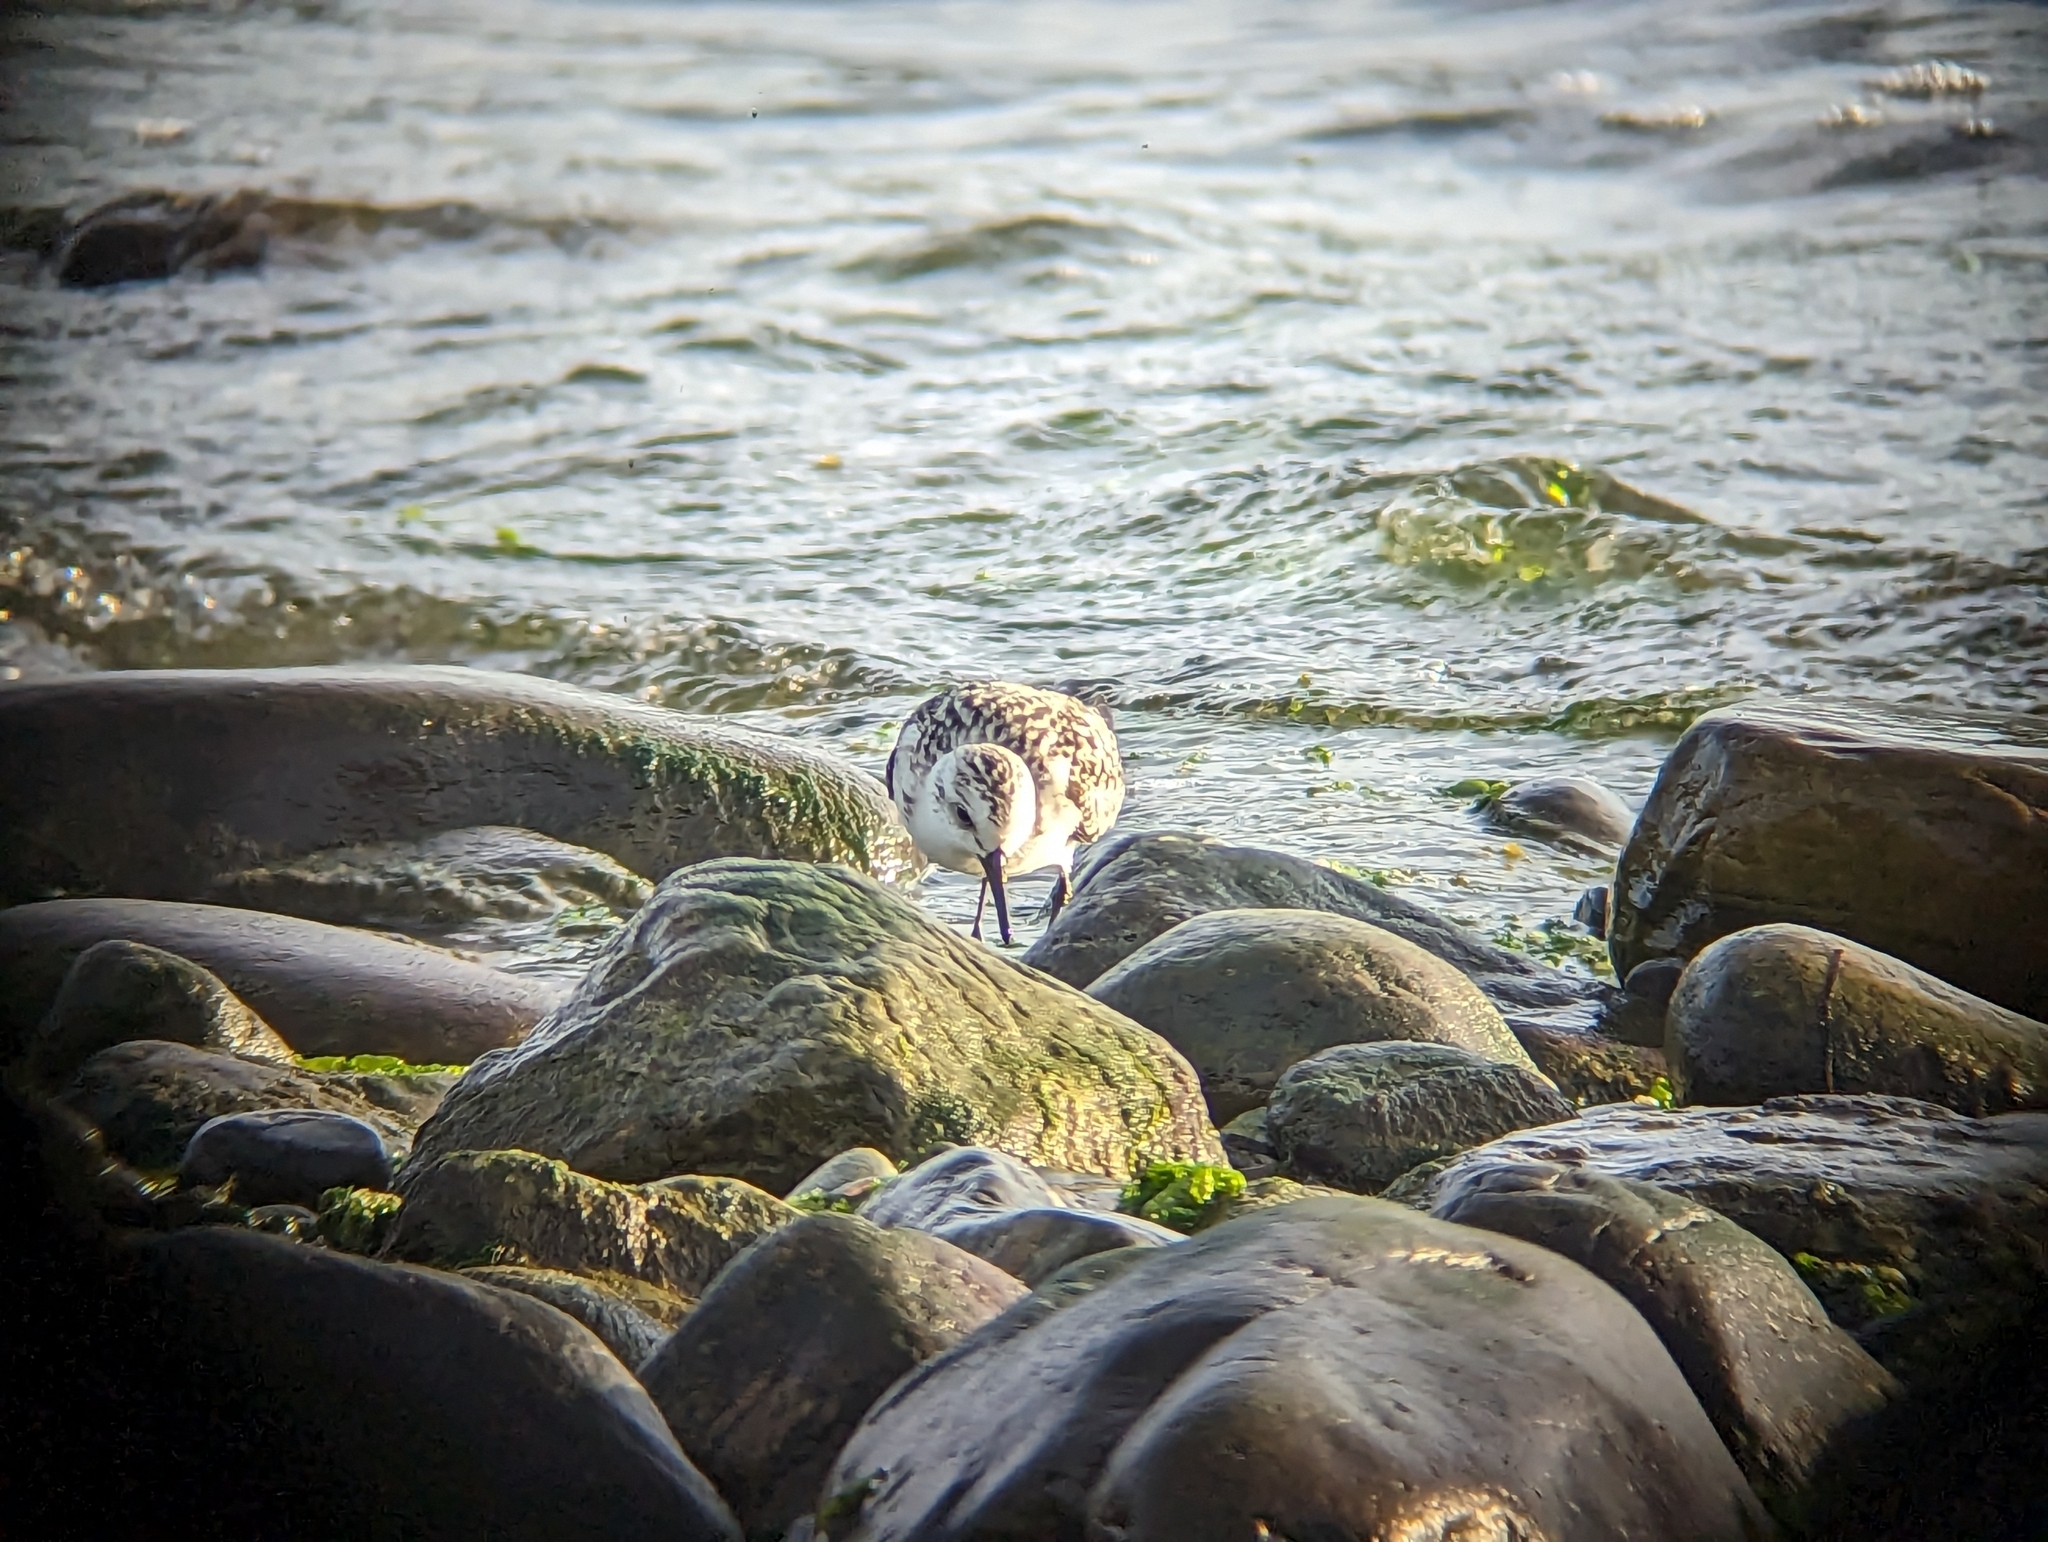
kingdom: Animalia
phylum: Chordata
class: Aves
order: Charadriiformes
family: Scolopacidae
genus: Calidris
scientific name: Calidris alba
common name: Sanderling
